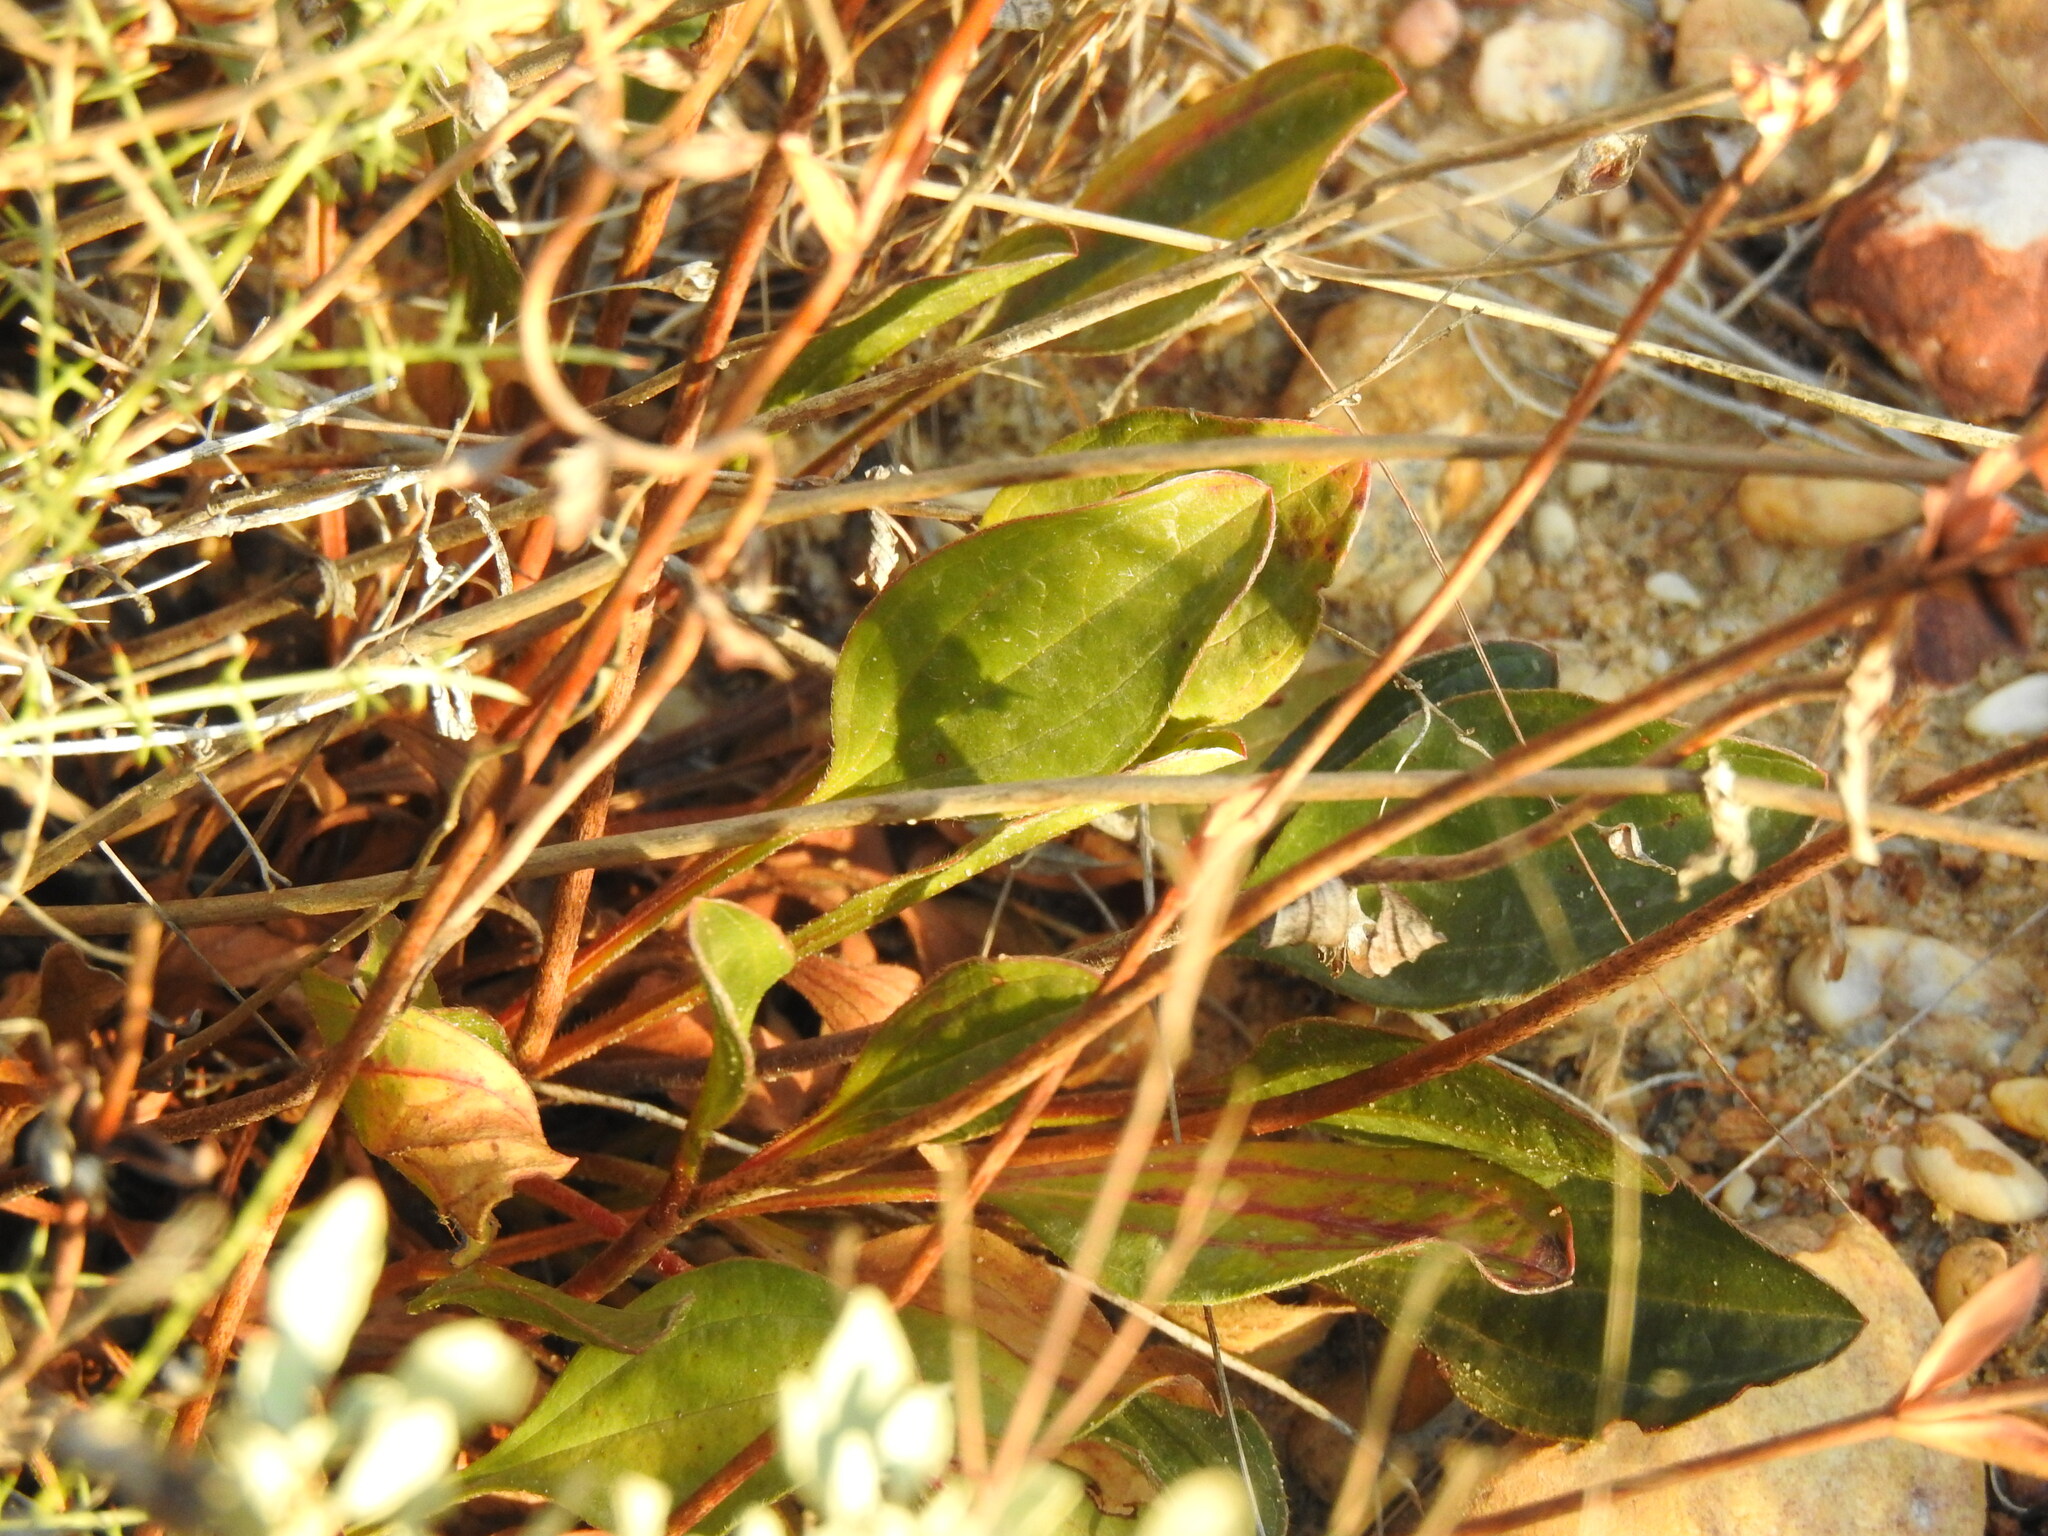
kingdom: Plantae
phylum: Tracheophyta
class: Magnoliopsida
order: Malvales
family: Cistaceae
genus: Tuberaria
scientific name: Tuberaria globulariifolia
